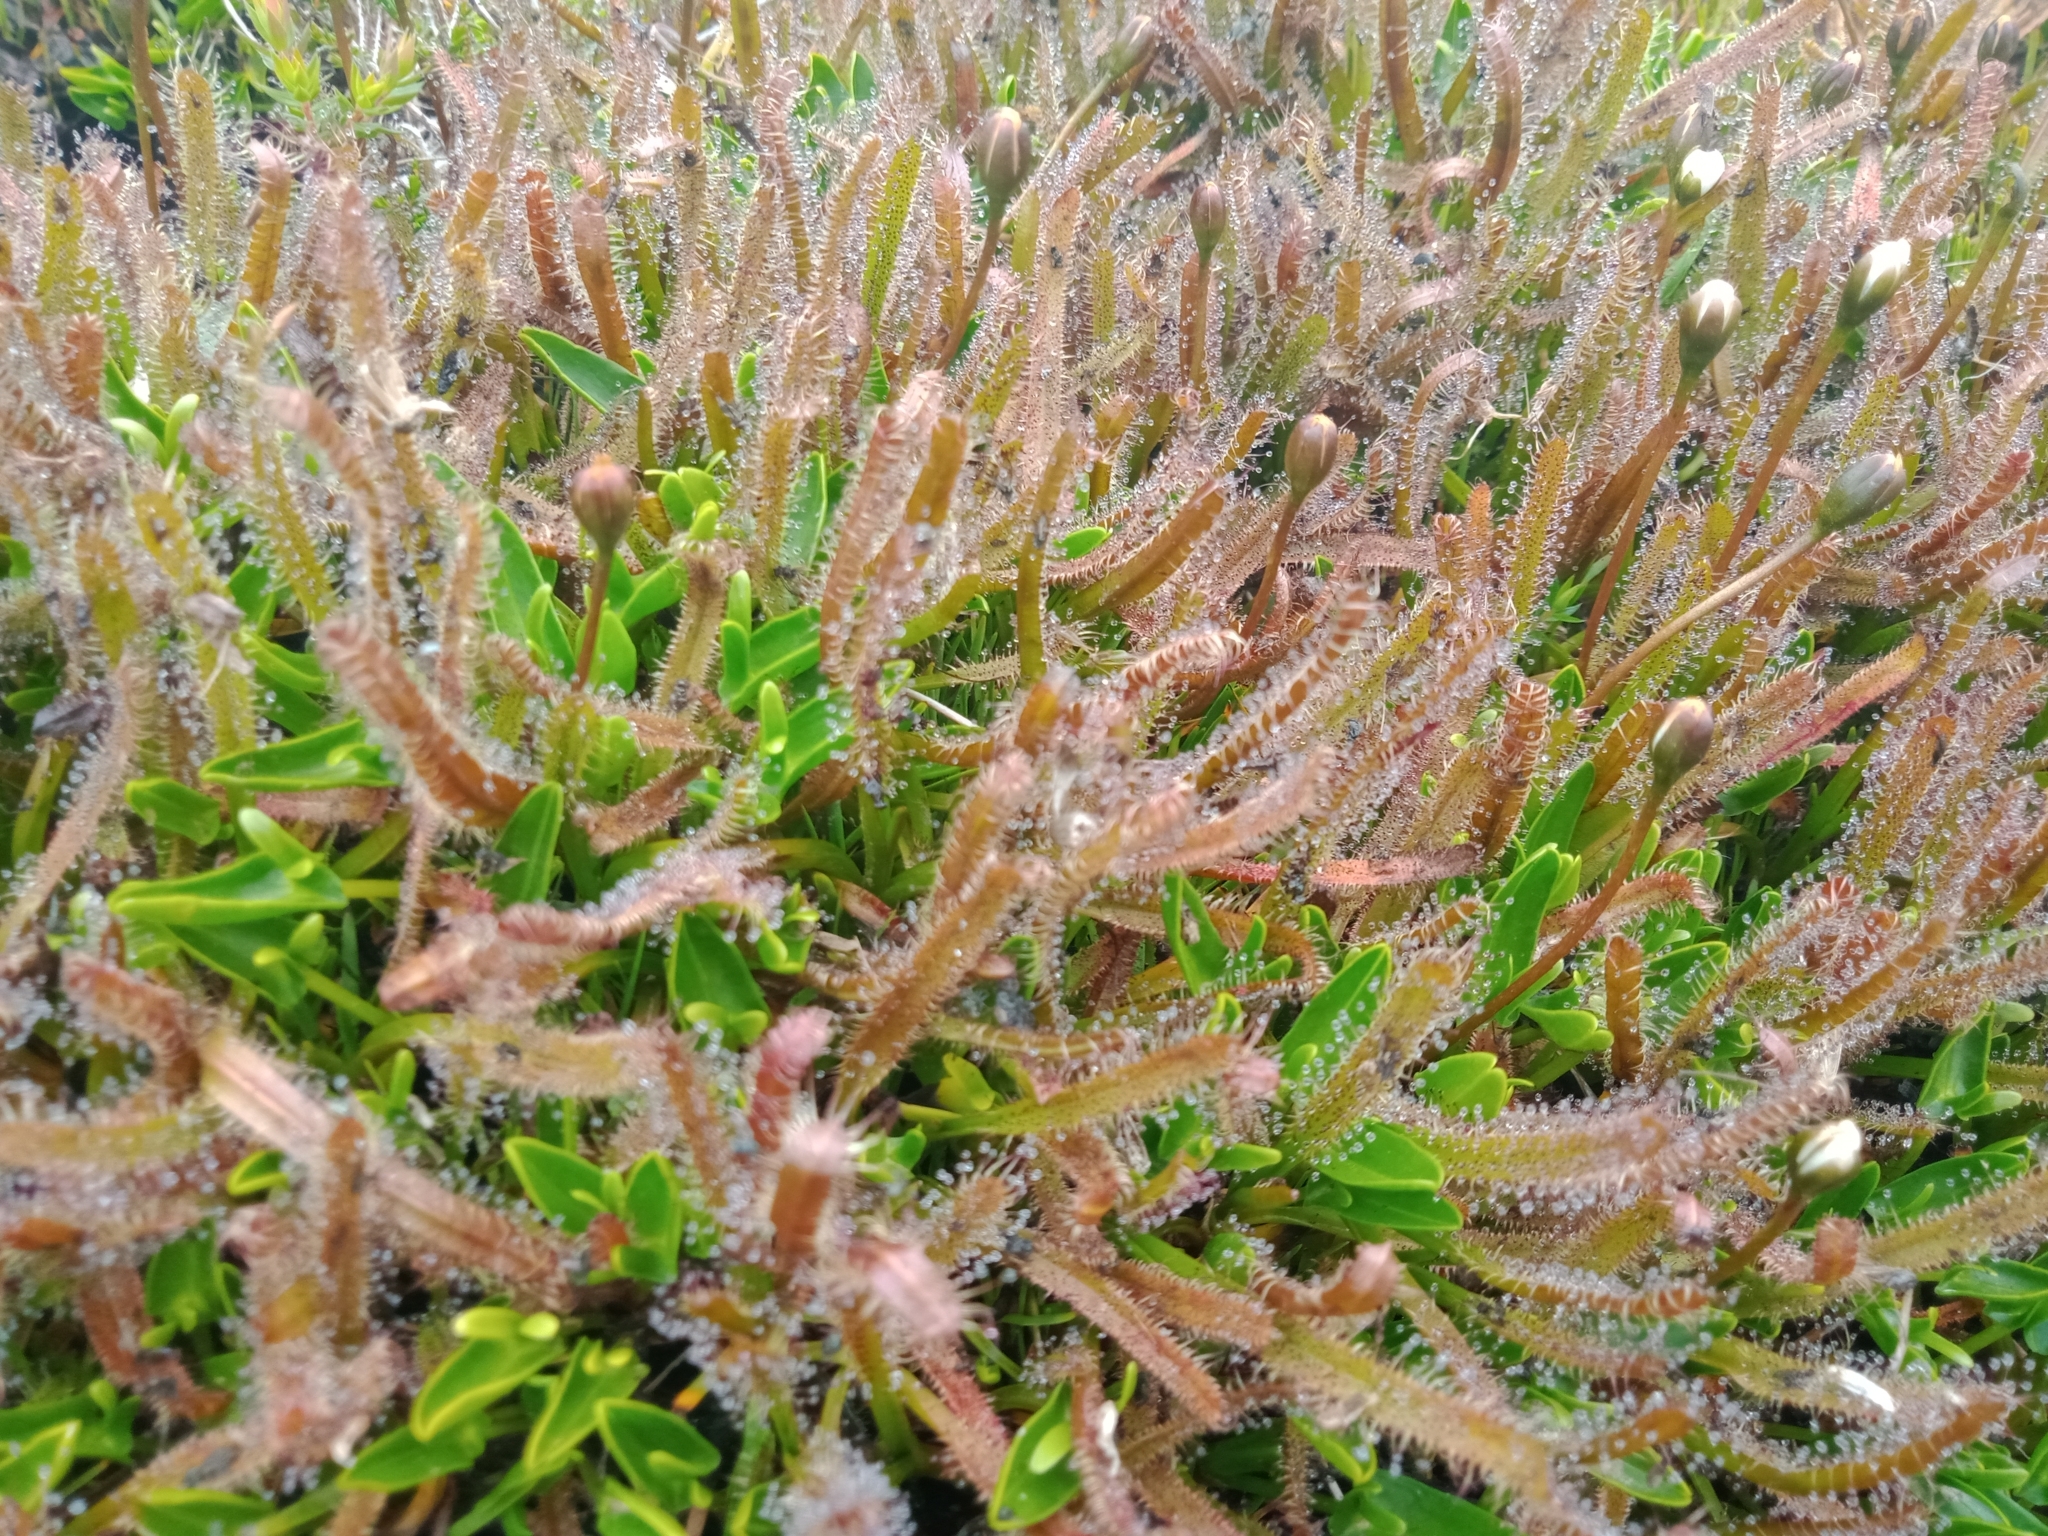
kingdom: Plantae
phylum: Tracheophyta
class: Magnoliopsida
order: Caryophyllales
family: Droseraceae
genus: Drosera
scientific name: Drosera arcturi
